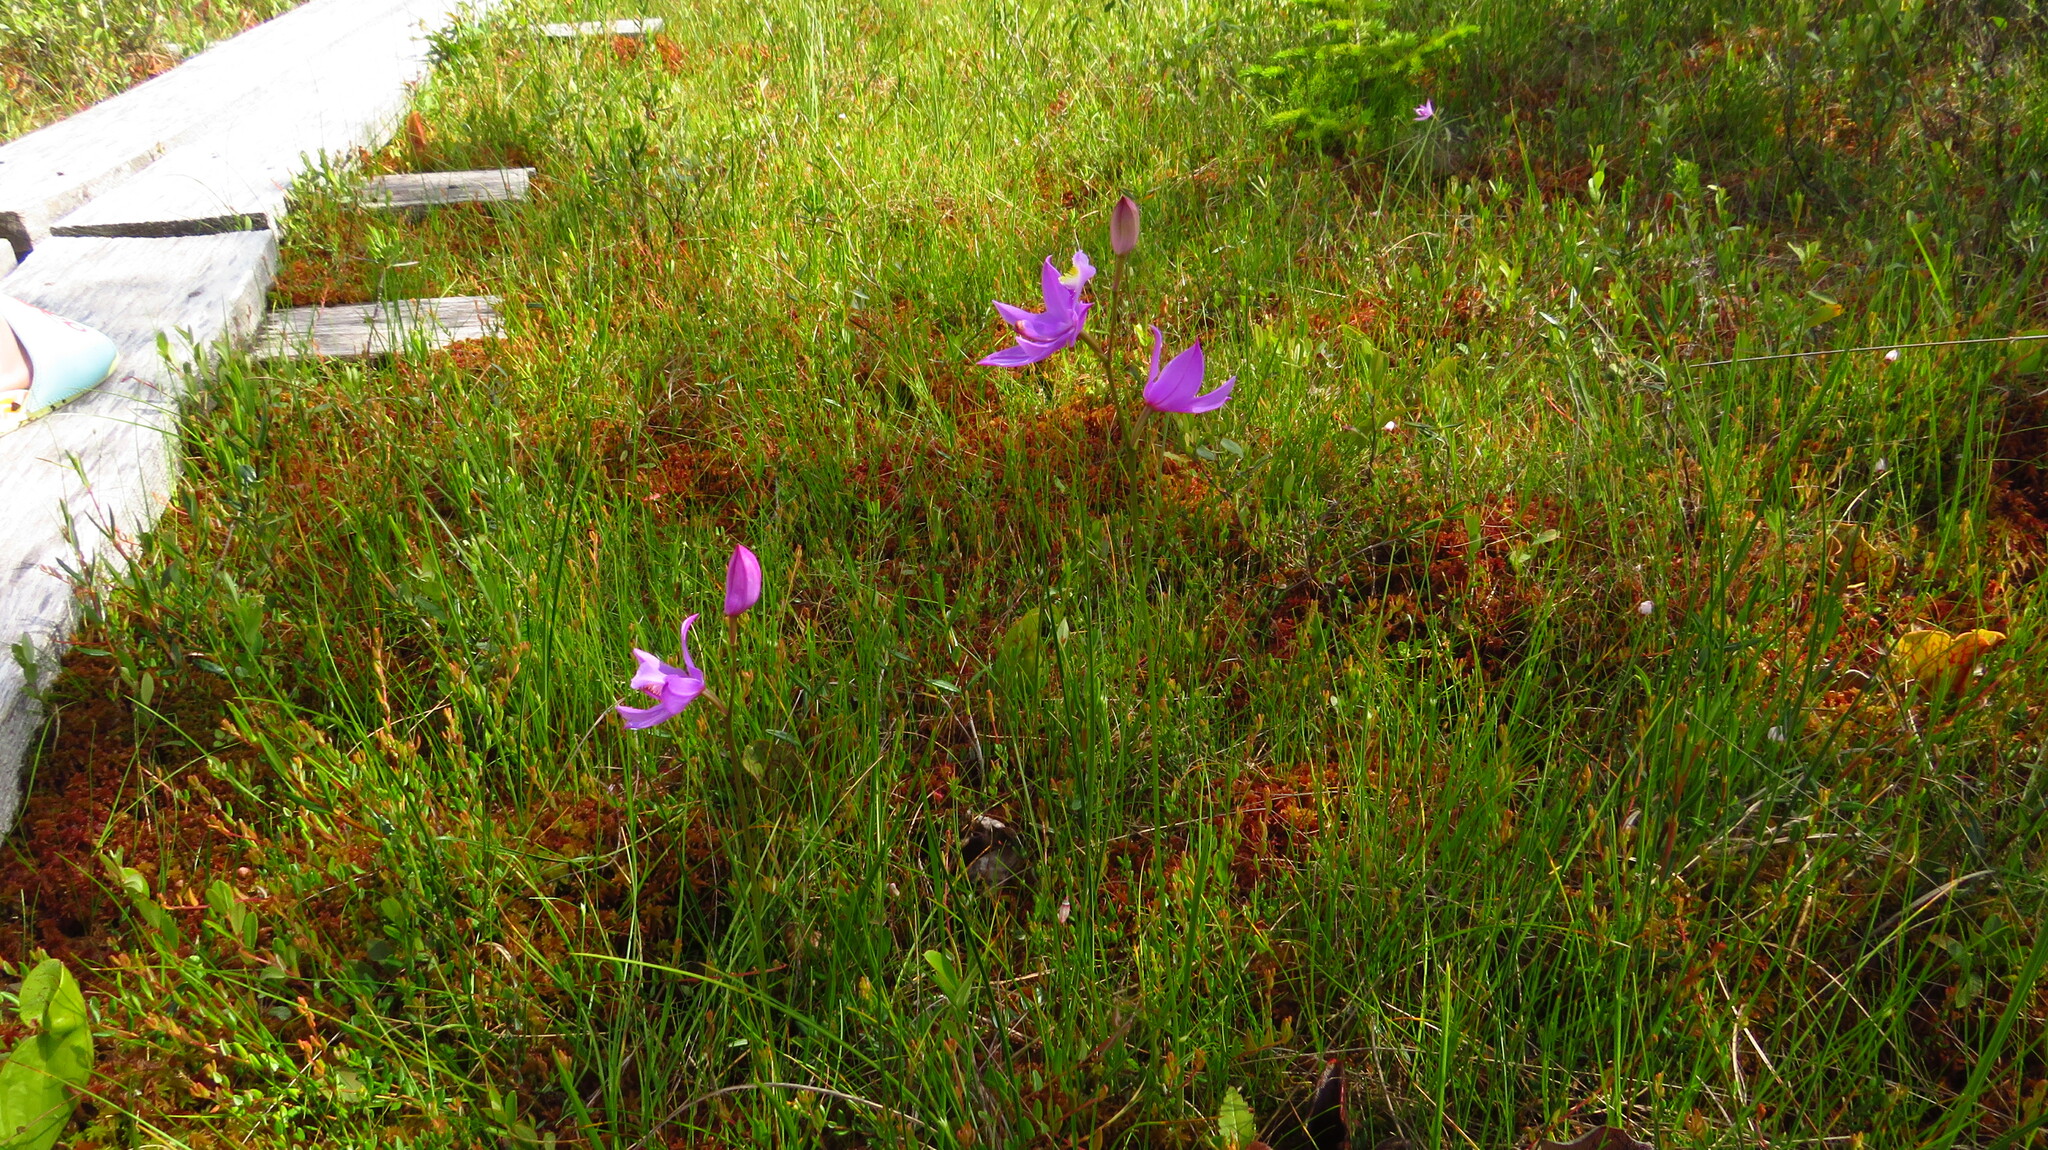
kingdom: Plantae
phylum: Tracheophyta
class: Liliopsida
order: Asparagales
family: Orchidaceae
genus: Calopogon
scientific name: Calopogon tuberosus
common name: Grass-pink
